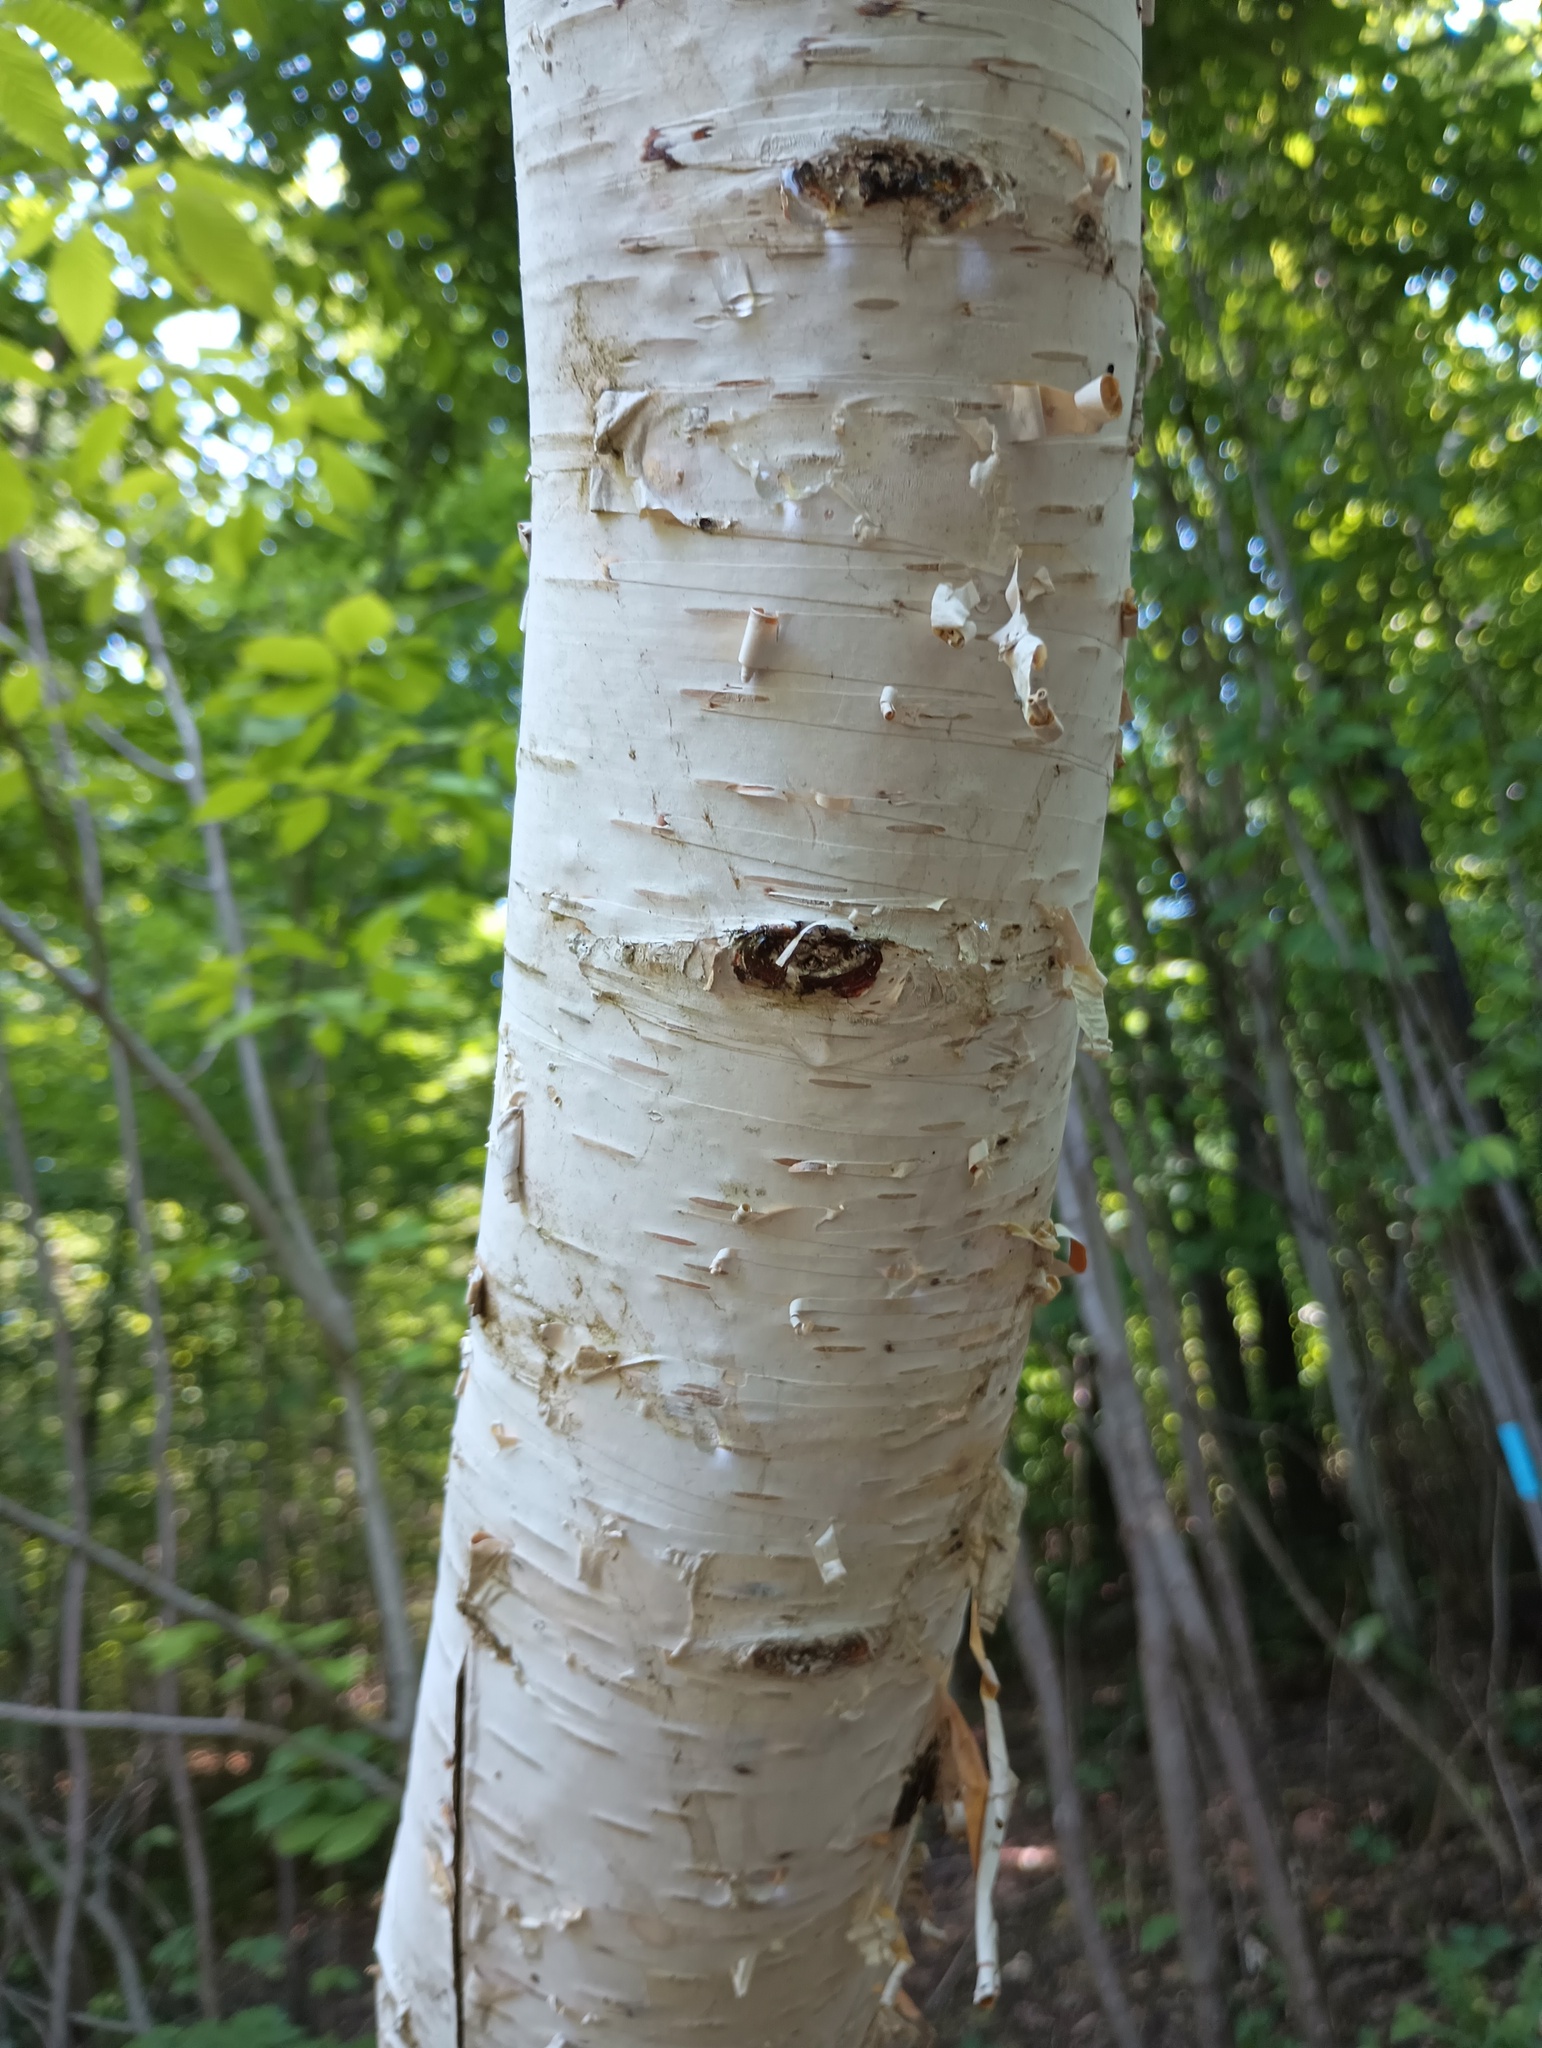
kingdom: Plantae
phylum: Tracheophyta
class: Magnoliopsida
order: Fagales
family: Betulaceae
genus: Betula
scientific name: Betula papyrifera
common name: Paper birch
